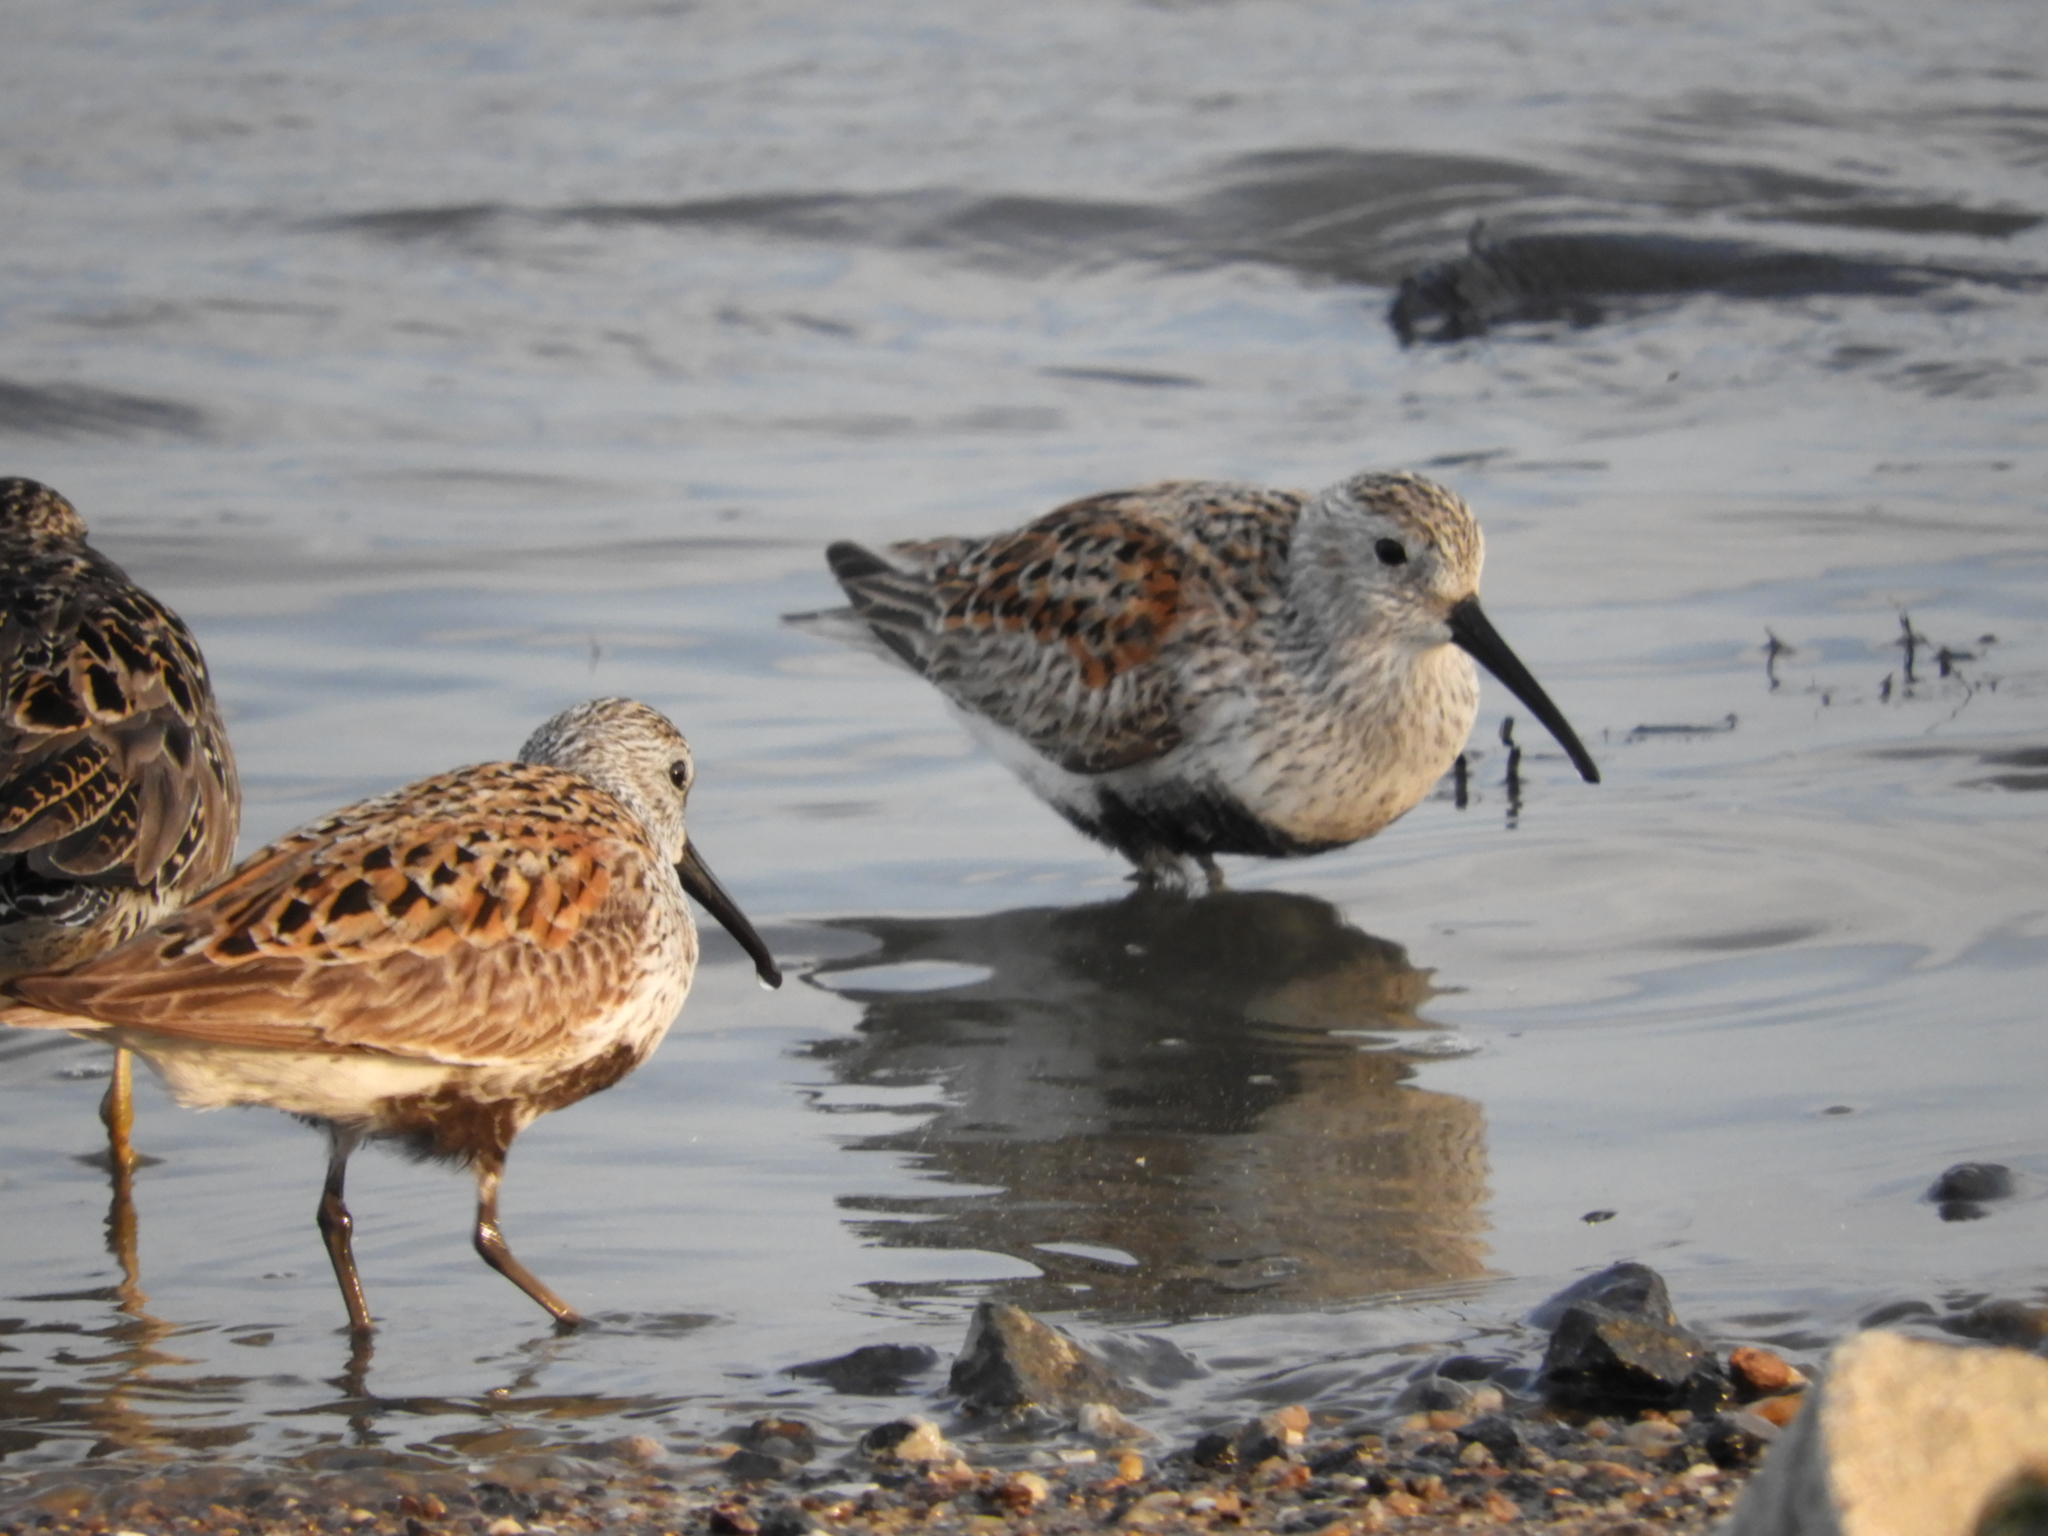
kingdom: Animalia
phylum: Chordata
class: Aves
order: Charadriiformes
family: Scolopacidae
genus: Calidris
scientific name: Calidris alpina
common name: Dunlin
